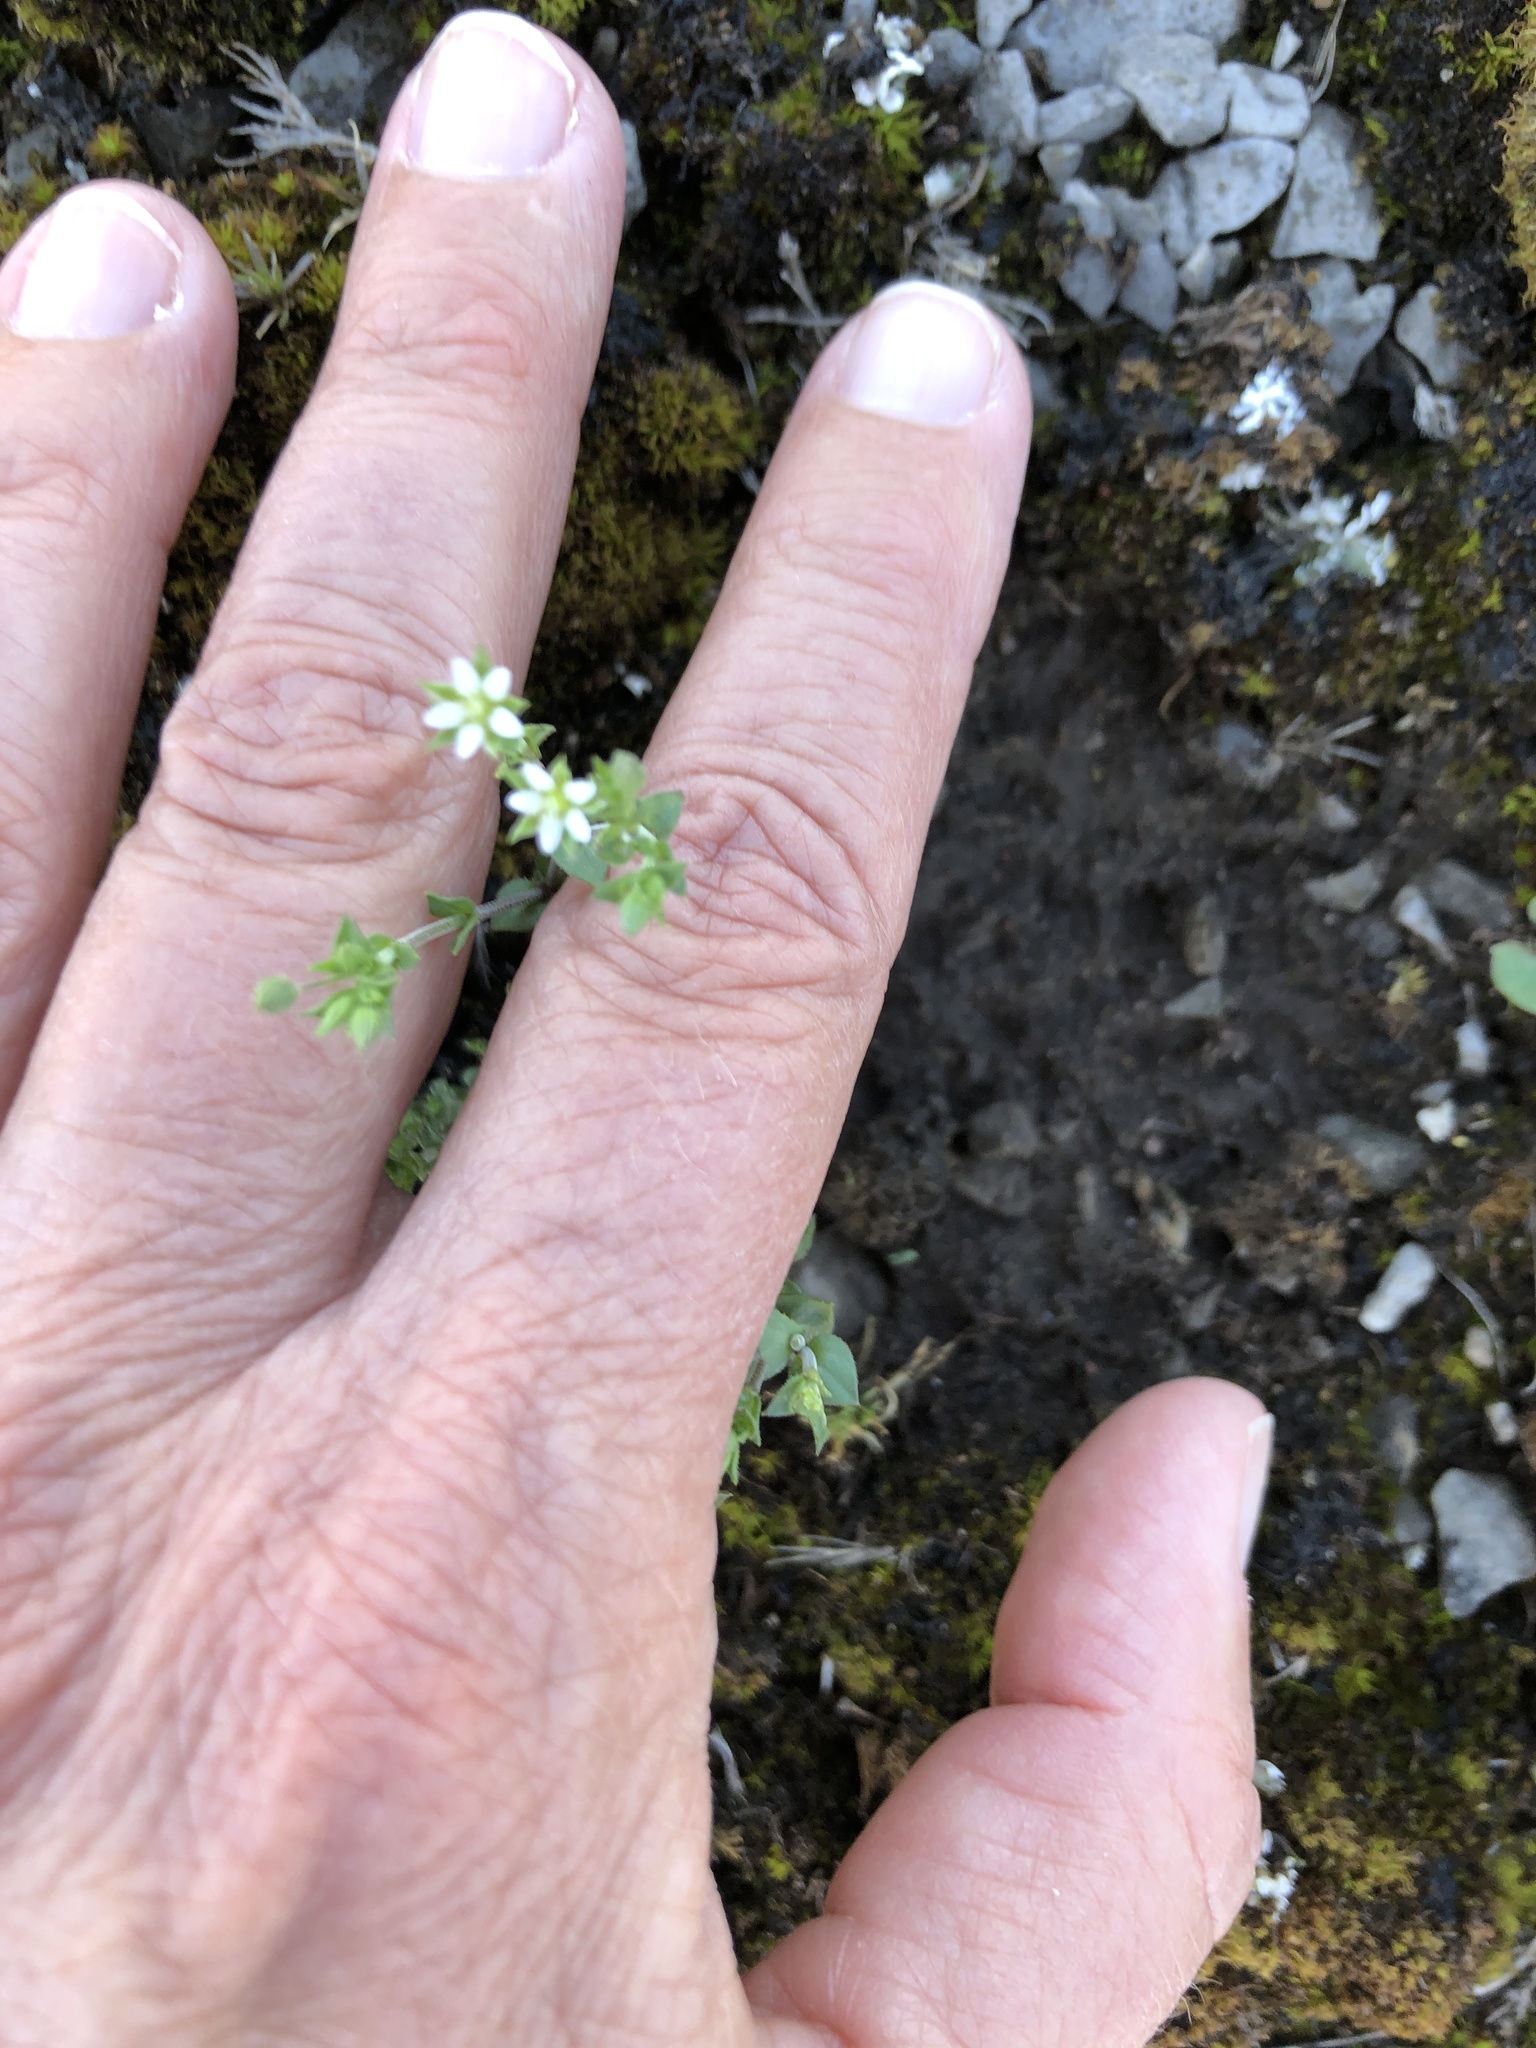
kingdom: Plantae
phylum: Tracheophyta
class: Magnoliopsida
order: Caryophyllales
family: Caryophyllaceae
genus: Arenaria
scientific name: Arenaria serpyllifolia
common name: Thyme-leaved sandwort
